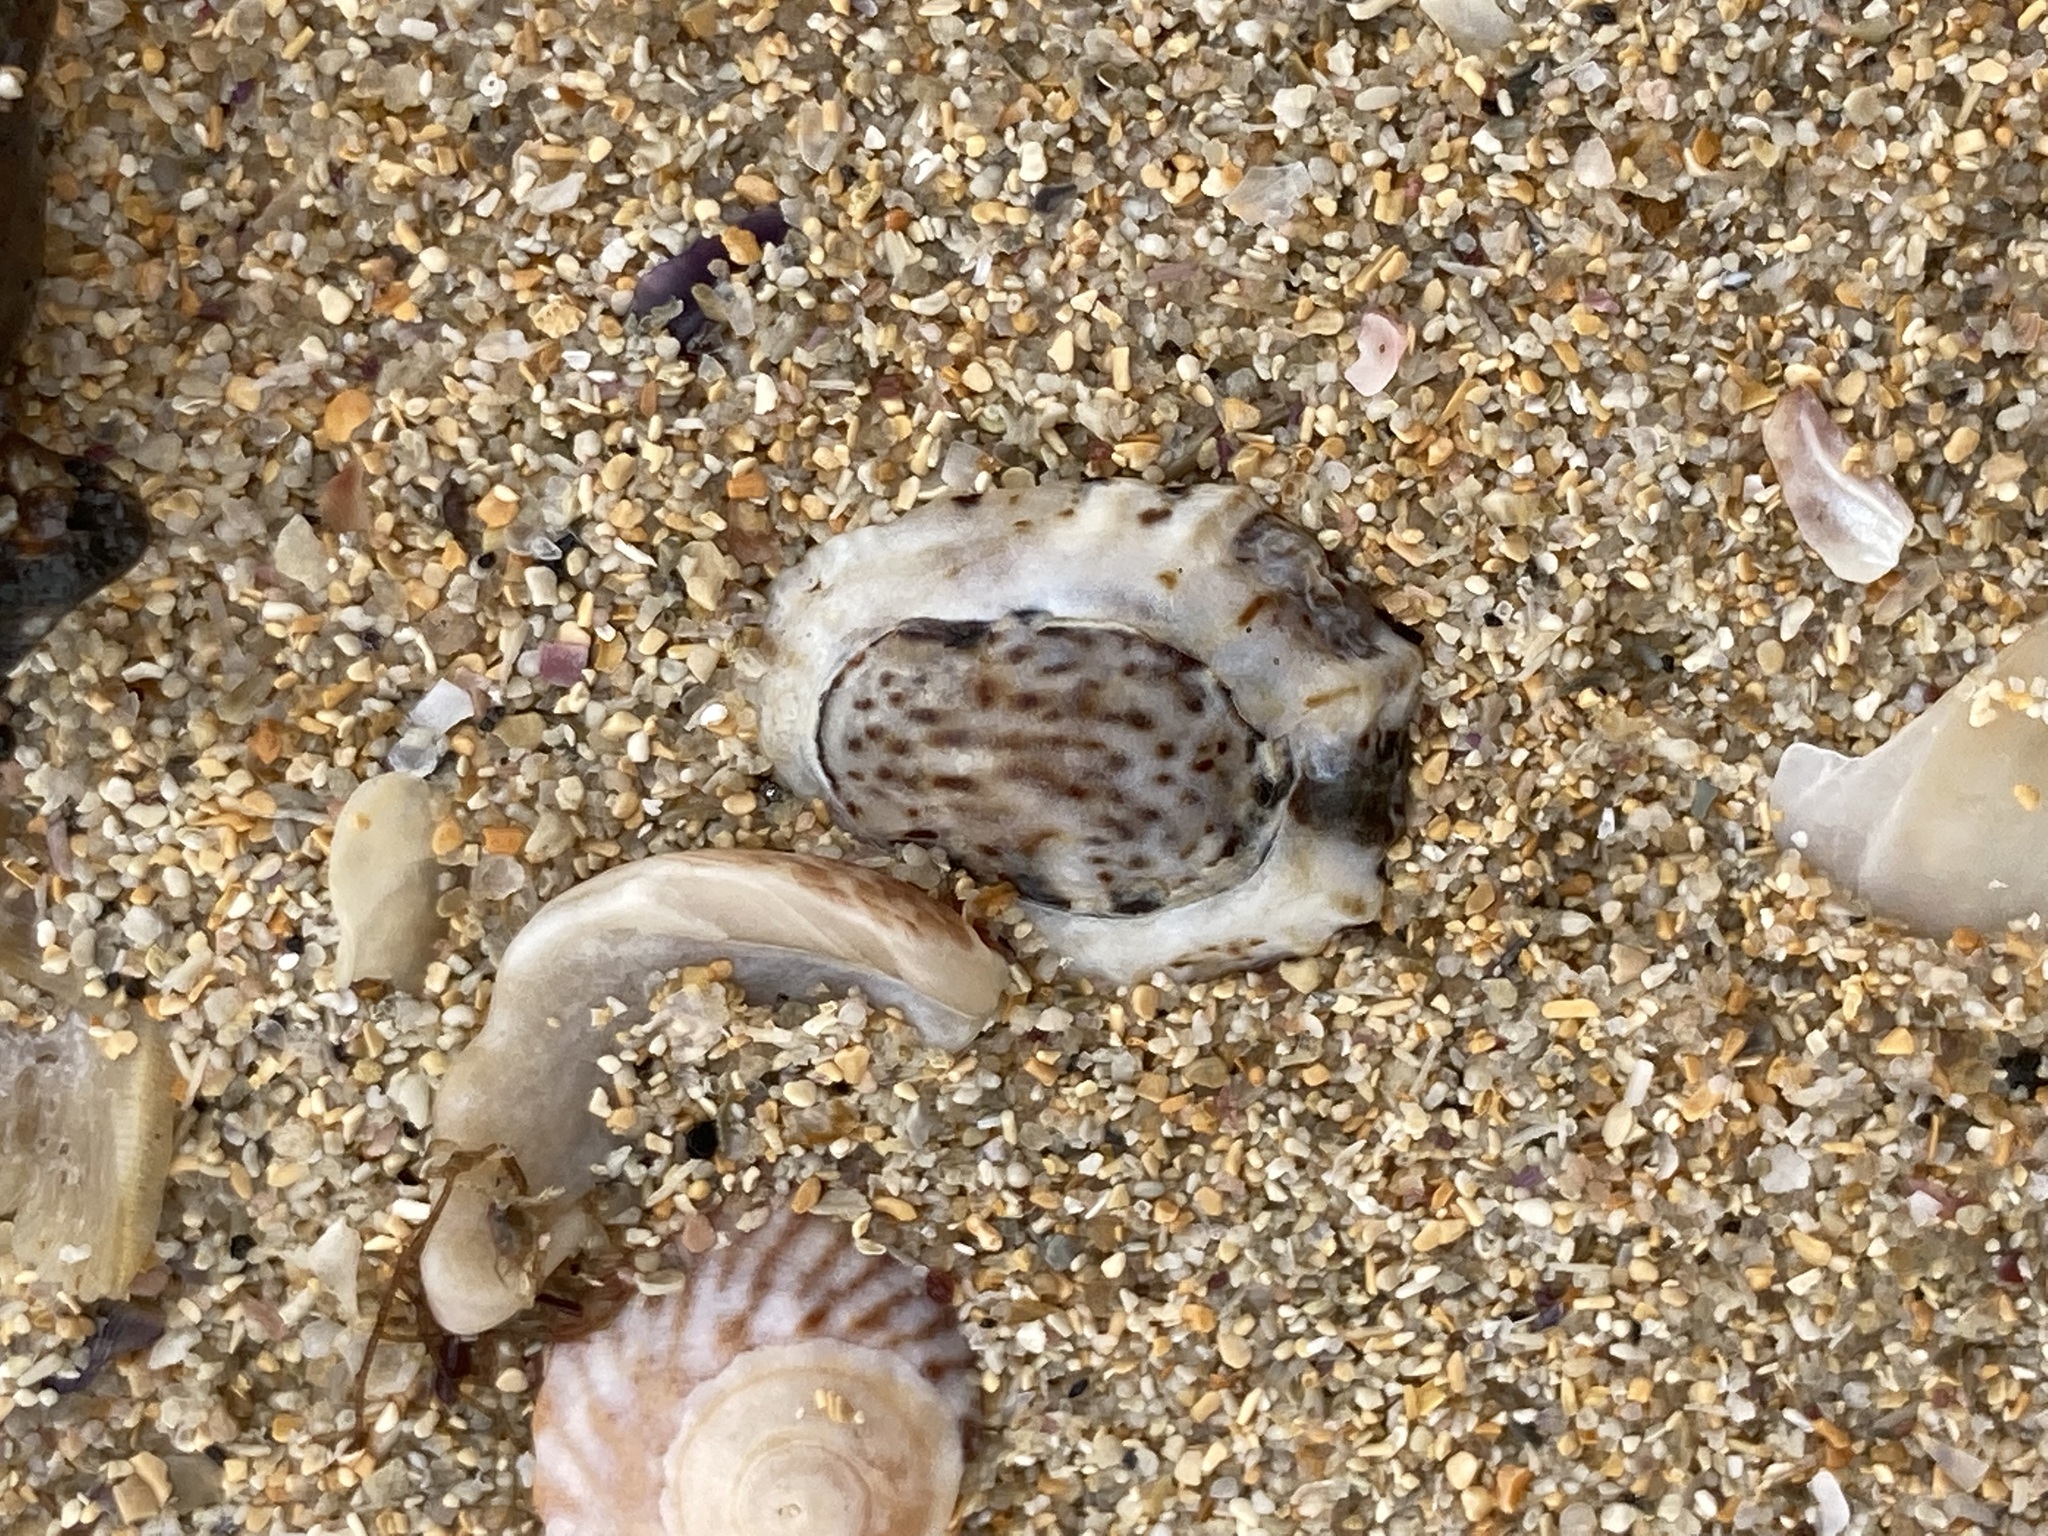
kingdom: Animalia
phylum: Mollusca
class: Gastropoda
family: Lottiidae
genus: Patelloida
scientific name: Patelloida latistrigata
